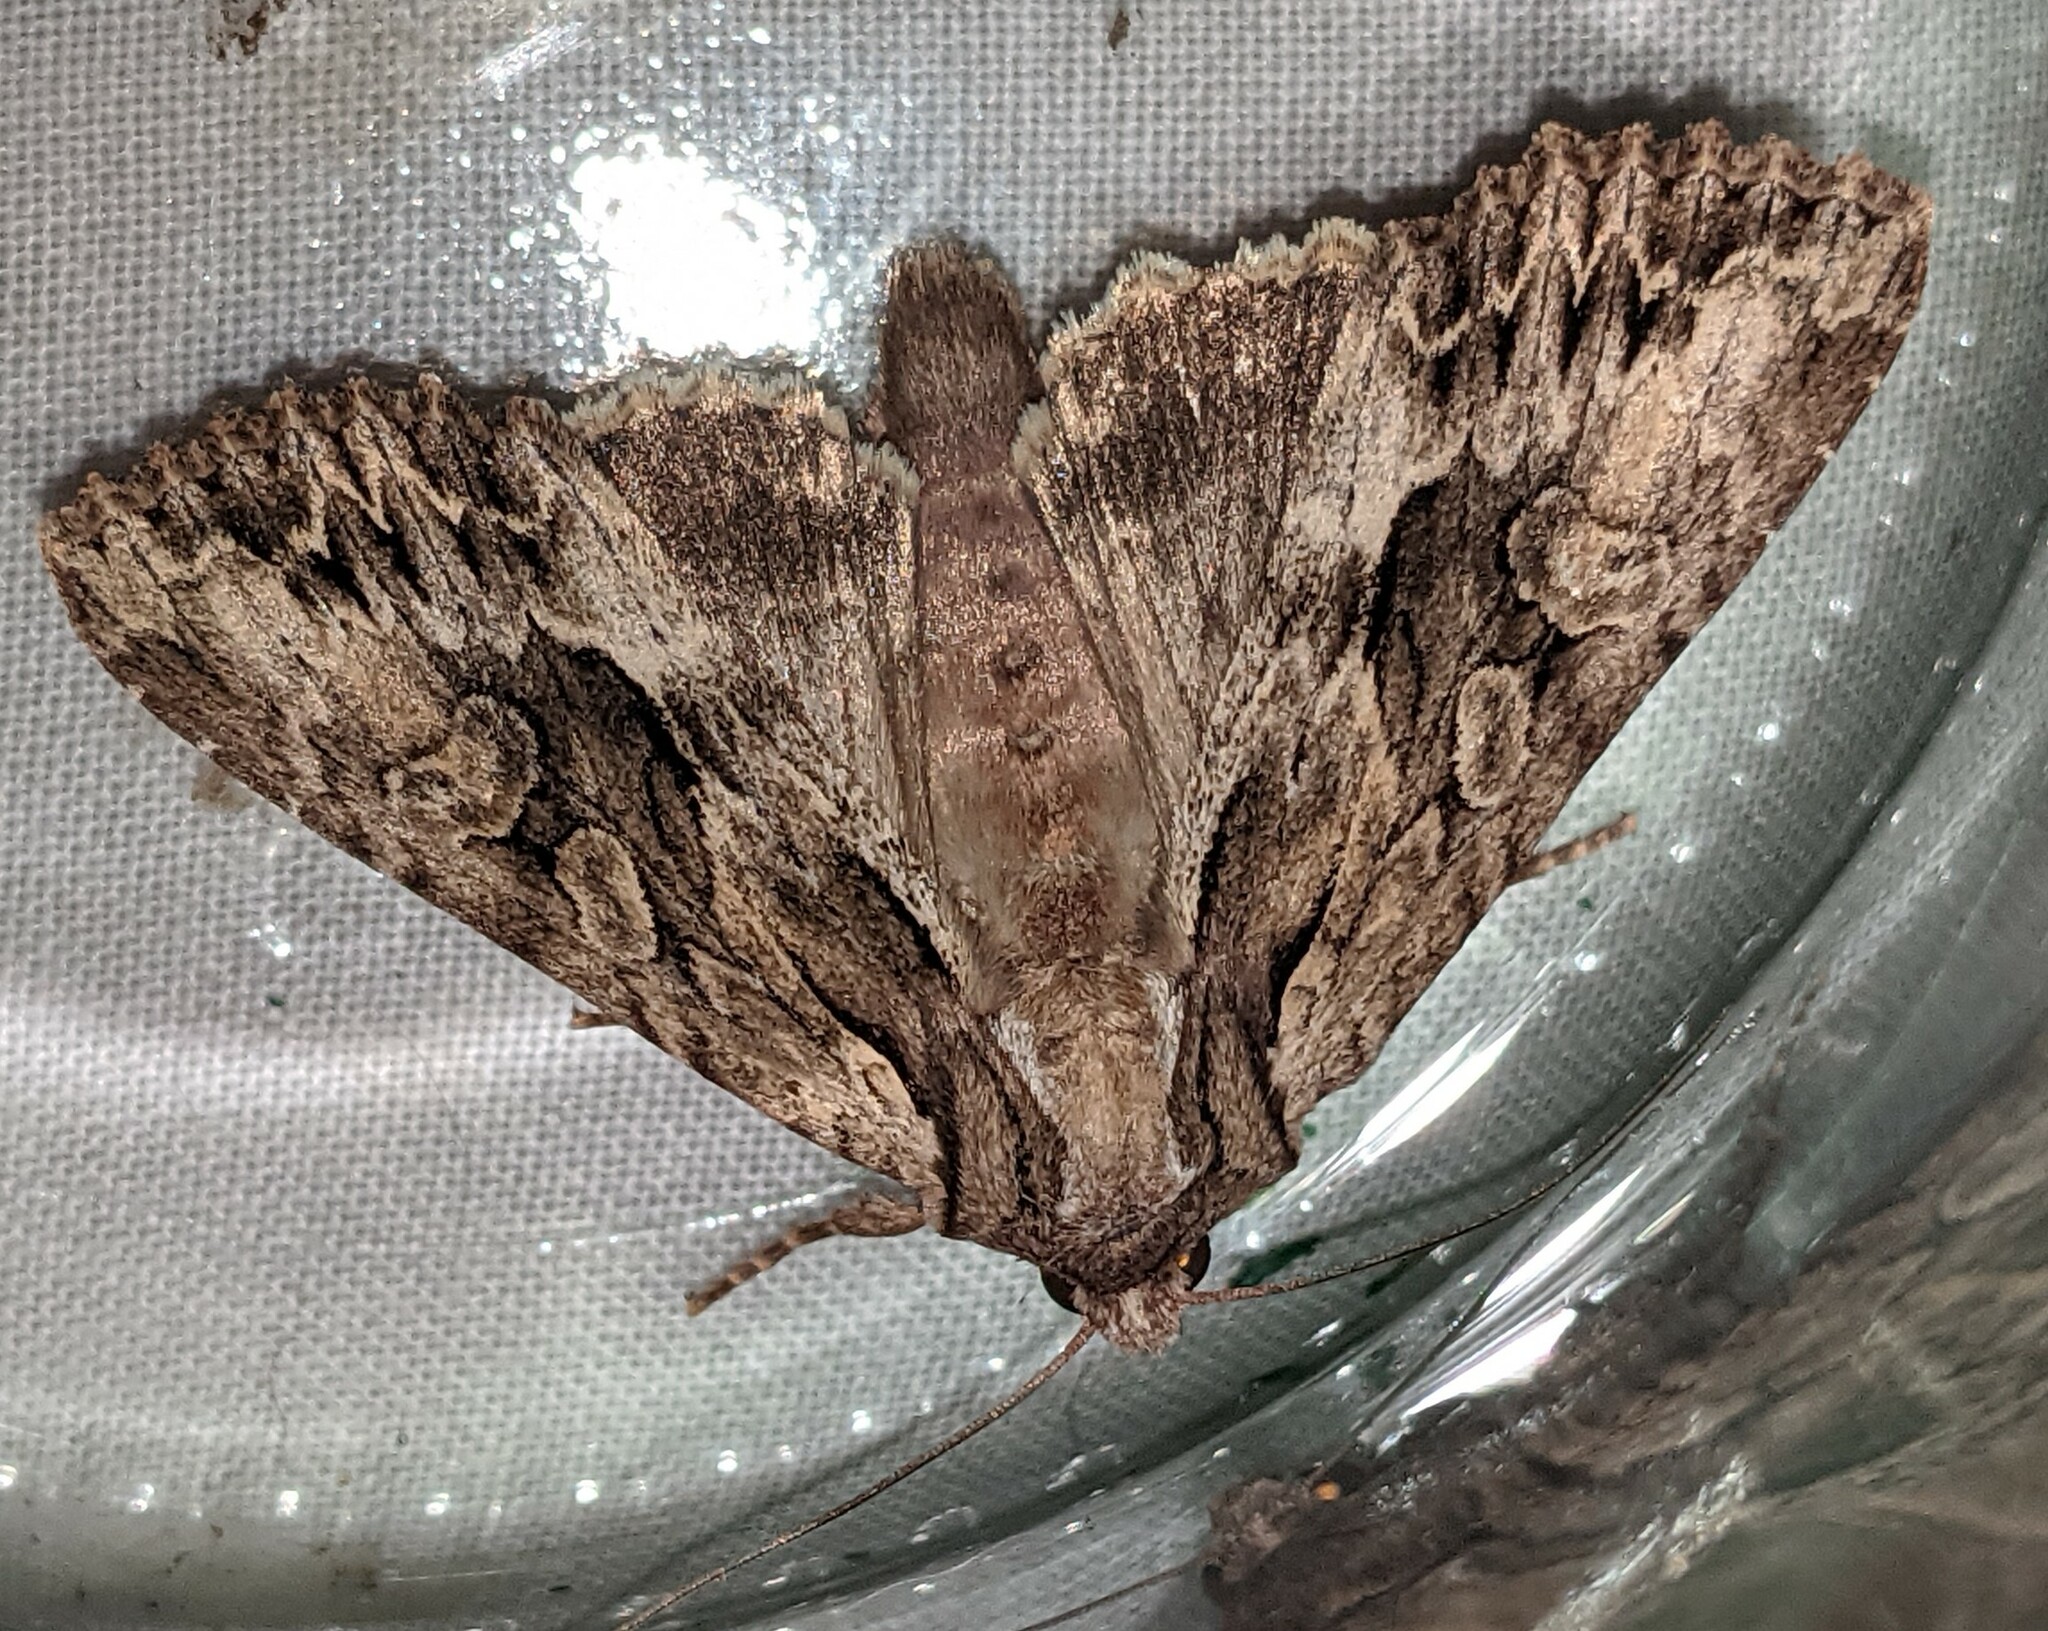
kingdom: Animalia
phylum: Arthropoda
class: Insecta
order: Lepidoptera
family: Noctuidae
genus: Apamea
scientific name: Apamea monoglypha
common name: Dark arches
